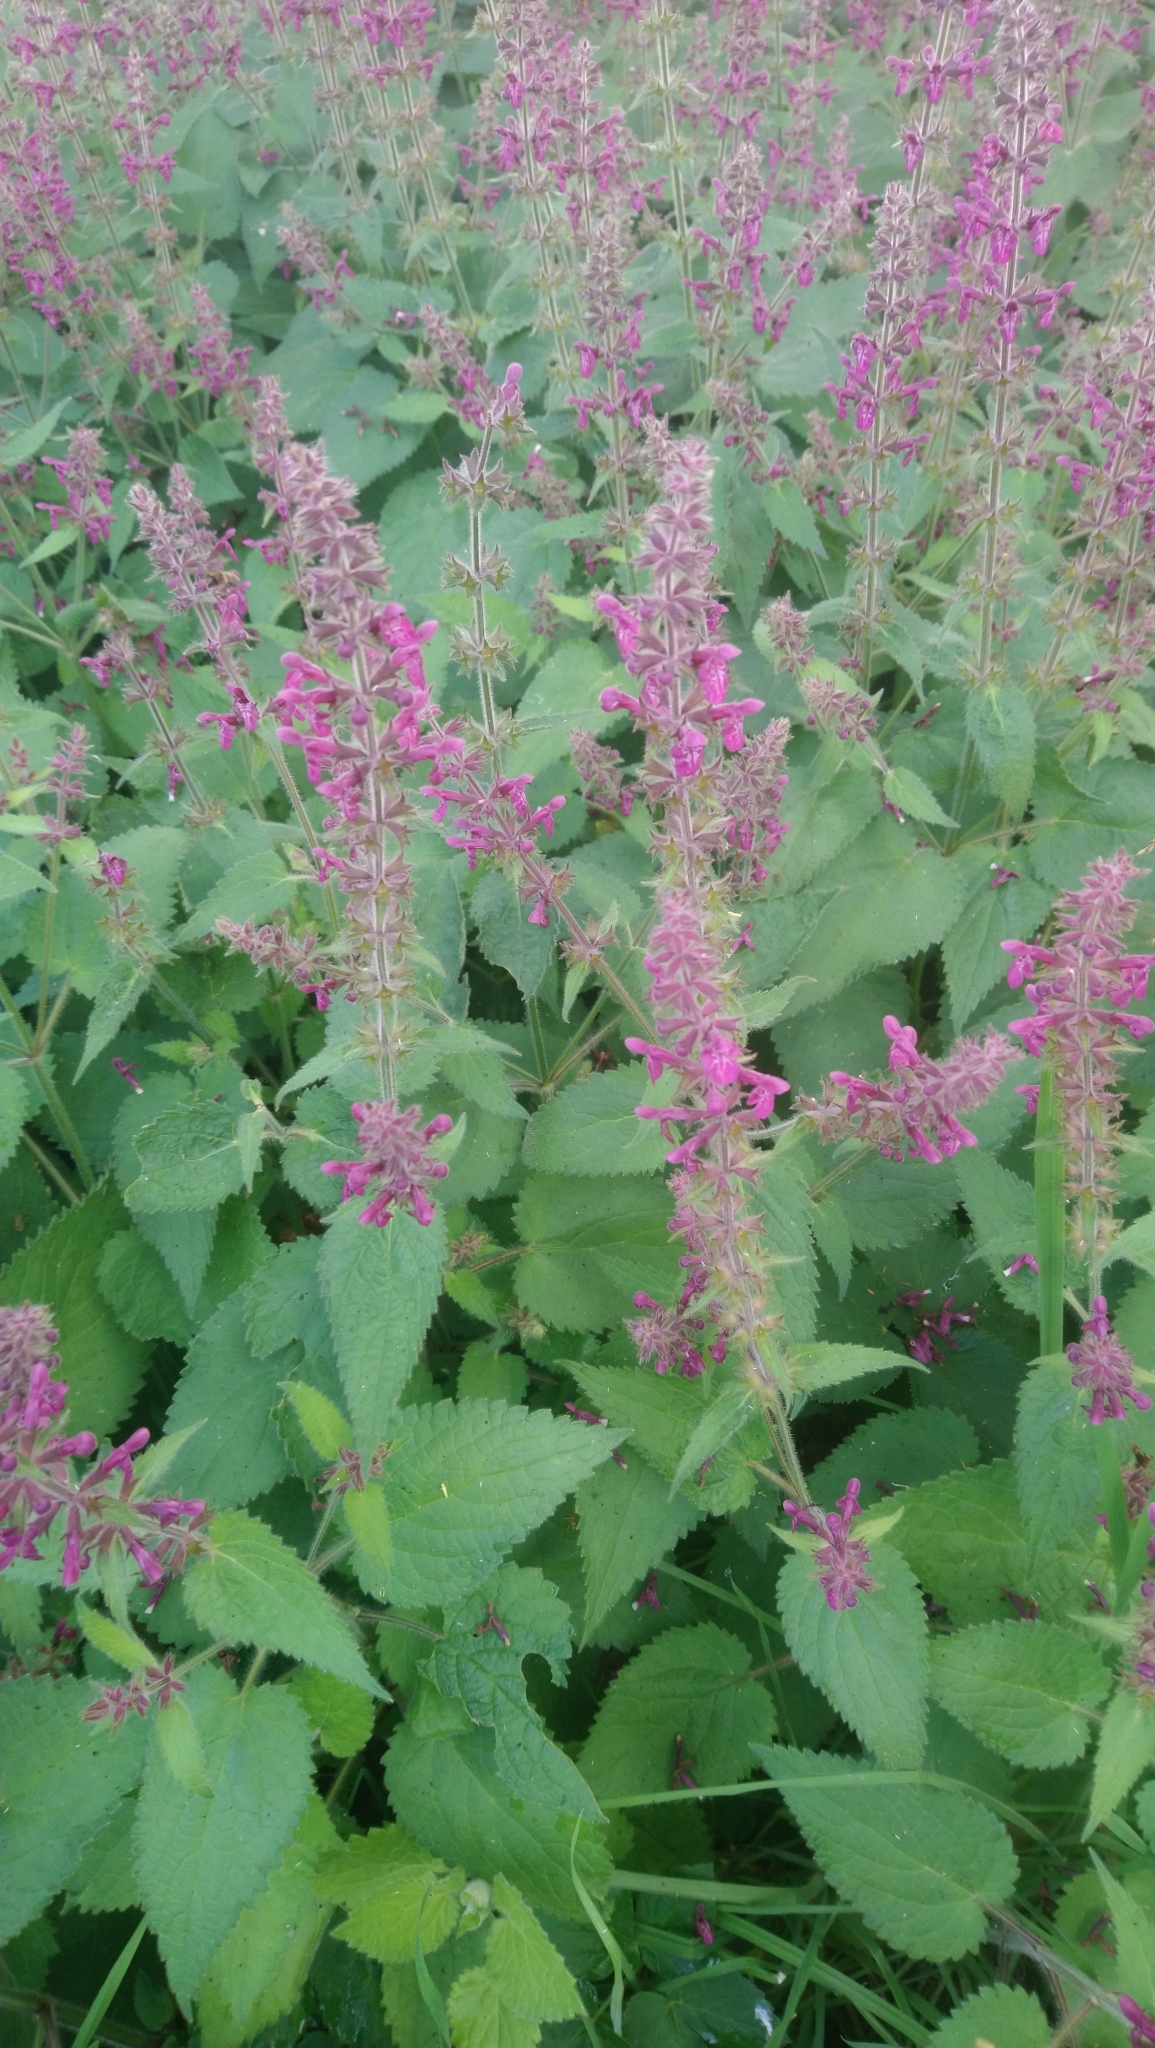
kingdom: Plantae
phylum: Tracheophyta
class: Magnoliopsida
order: Lamiales
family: Lamiaceae
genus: Stachys
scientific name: Stachys sylvatica
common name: Hedge woundwort
